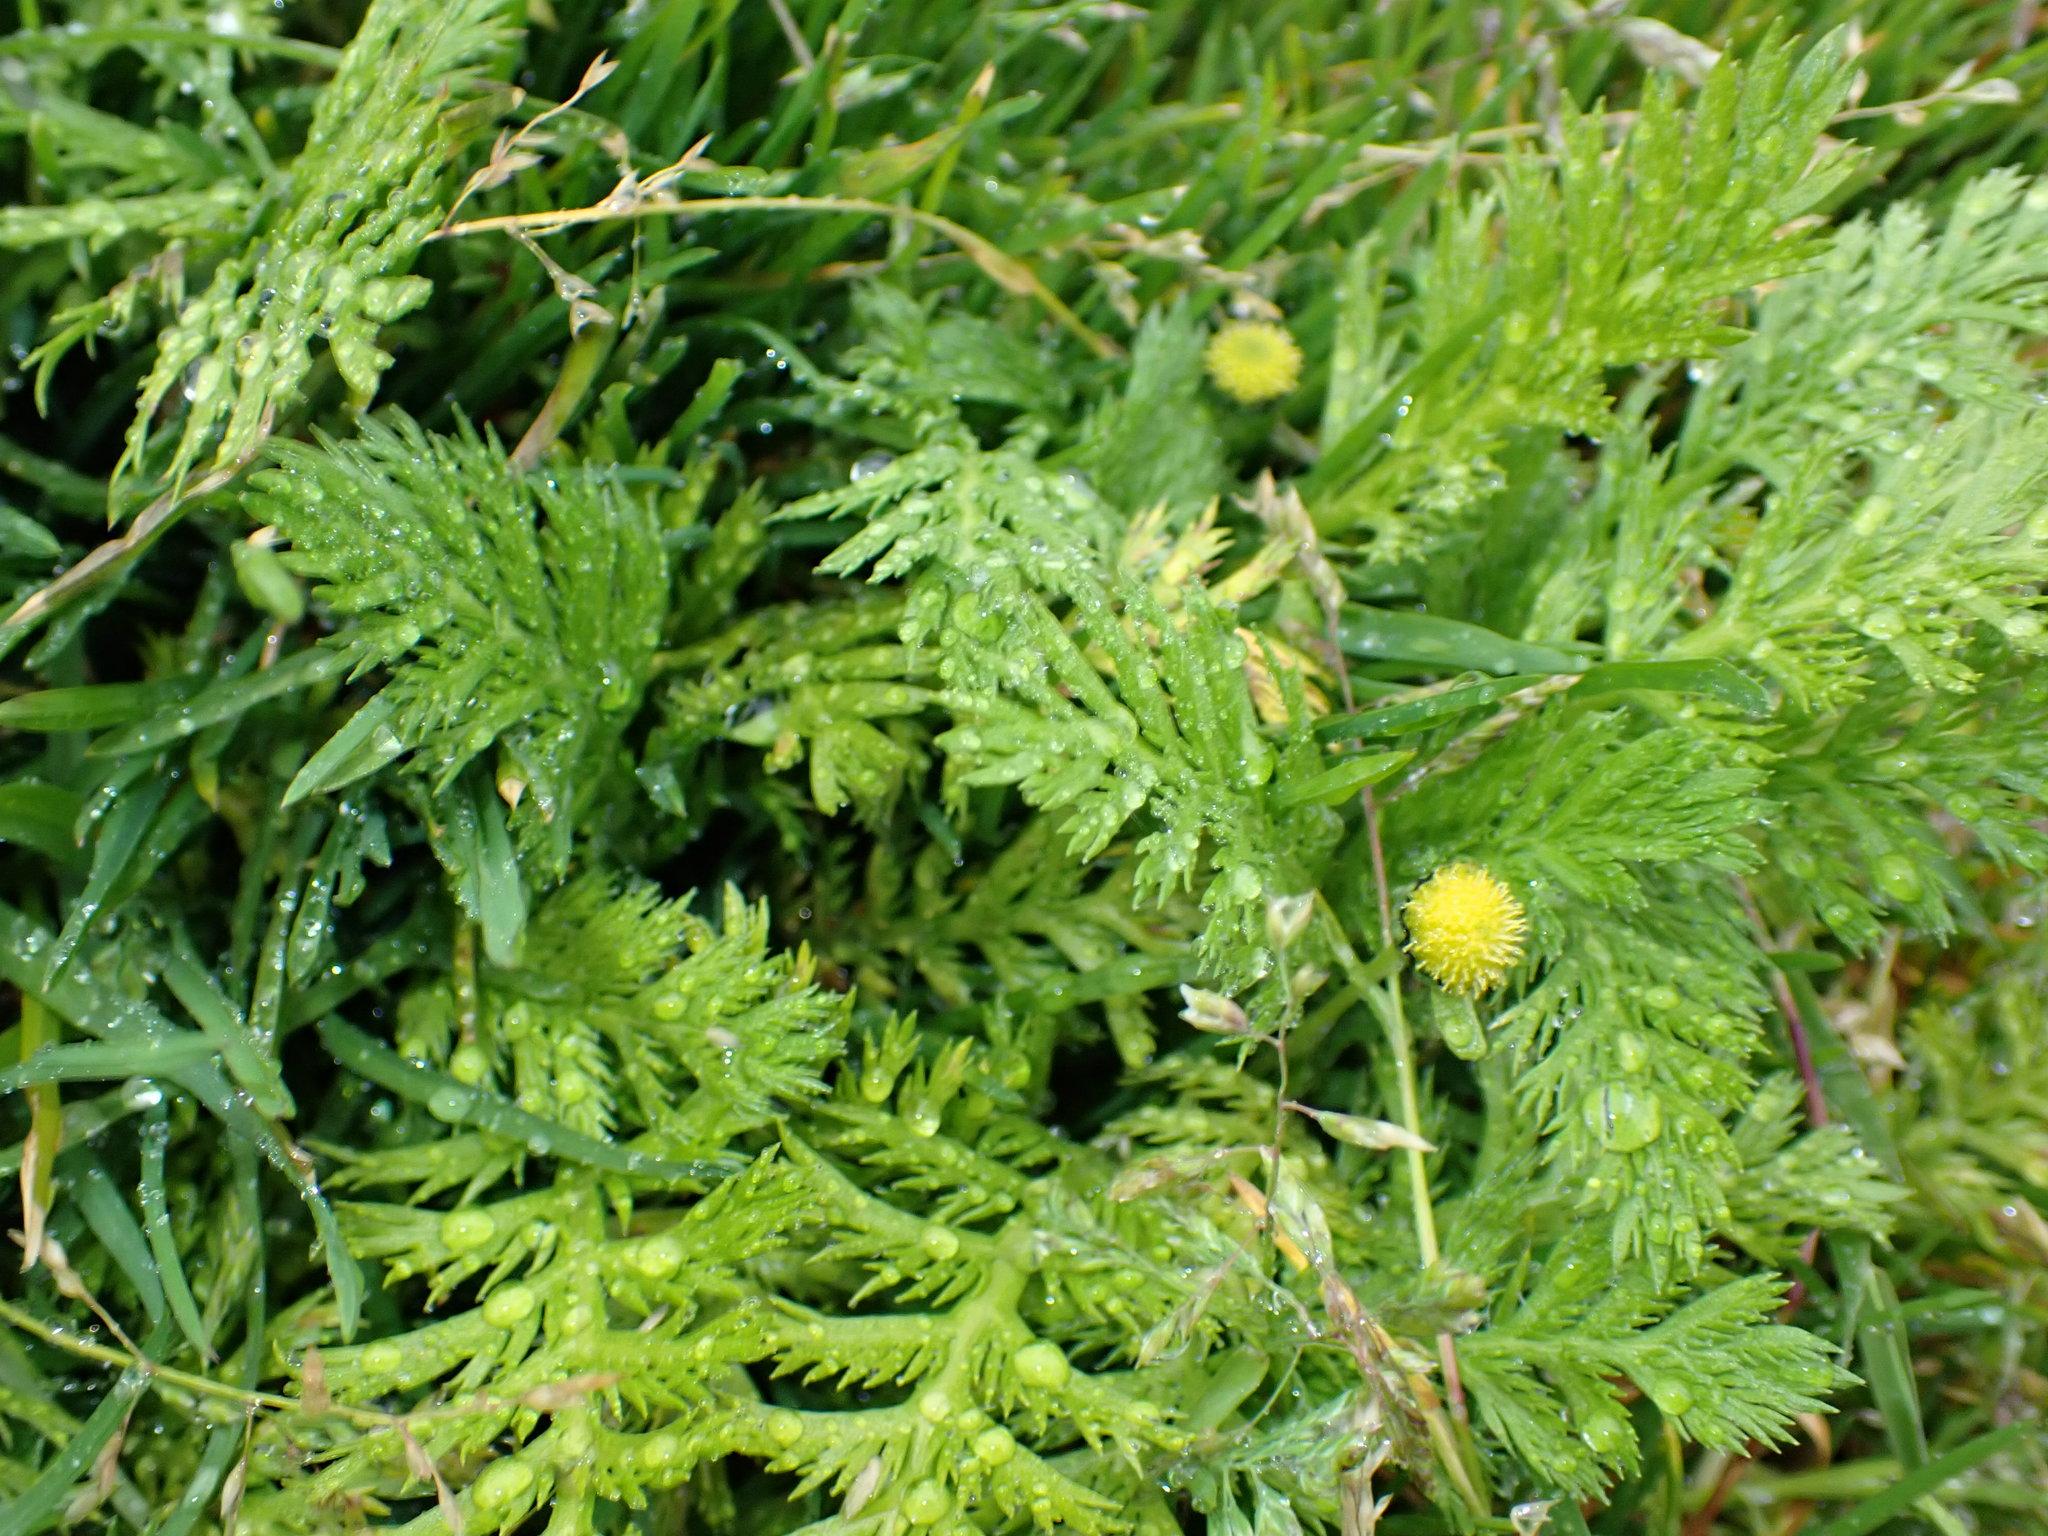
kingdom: Plantae
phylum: Tracheophyta
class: Magnoliopsida
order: Asterales
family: Asteraceae
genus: Leptinella
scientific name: Leptinella plumosa
